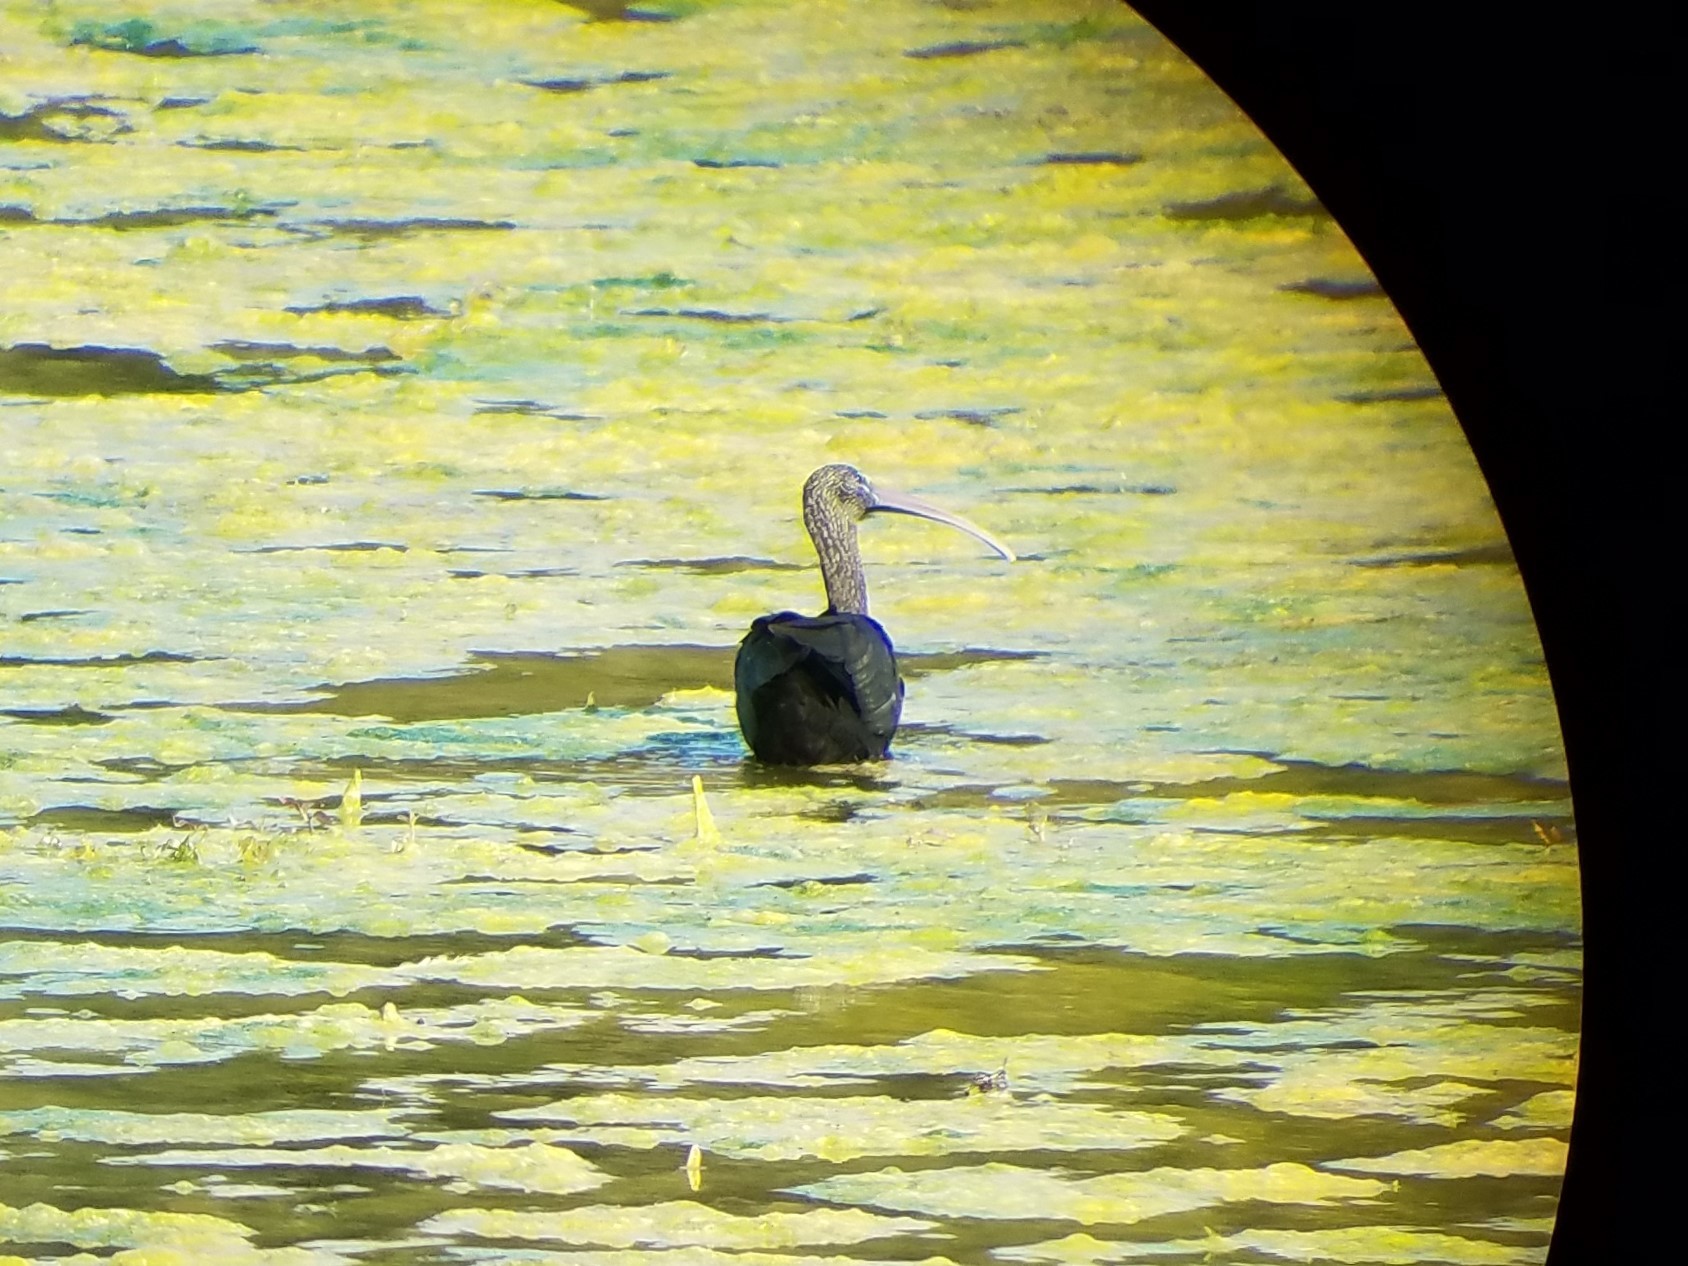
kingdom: Animalia
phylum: Chordata
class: Aves
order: Pelecaniformes
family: Threskiornithidae
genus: Plegadis
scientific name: Plegadis falcinellus
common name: Glossy ibis
